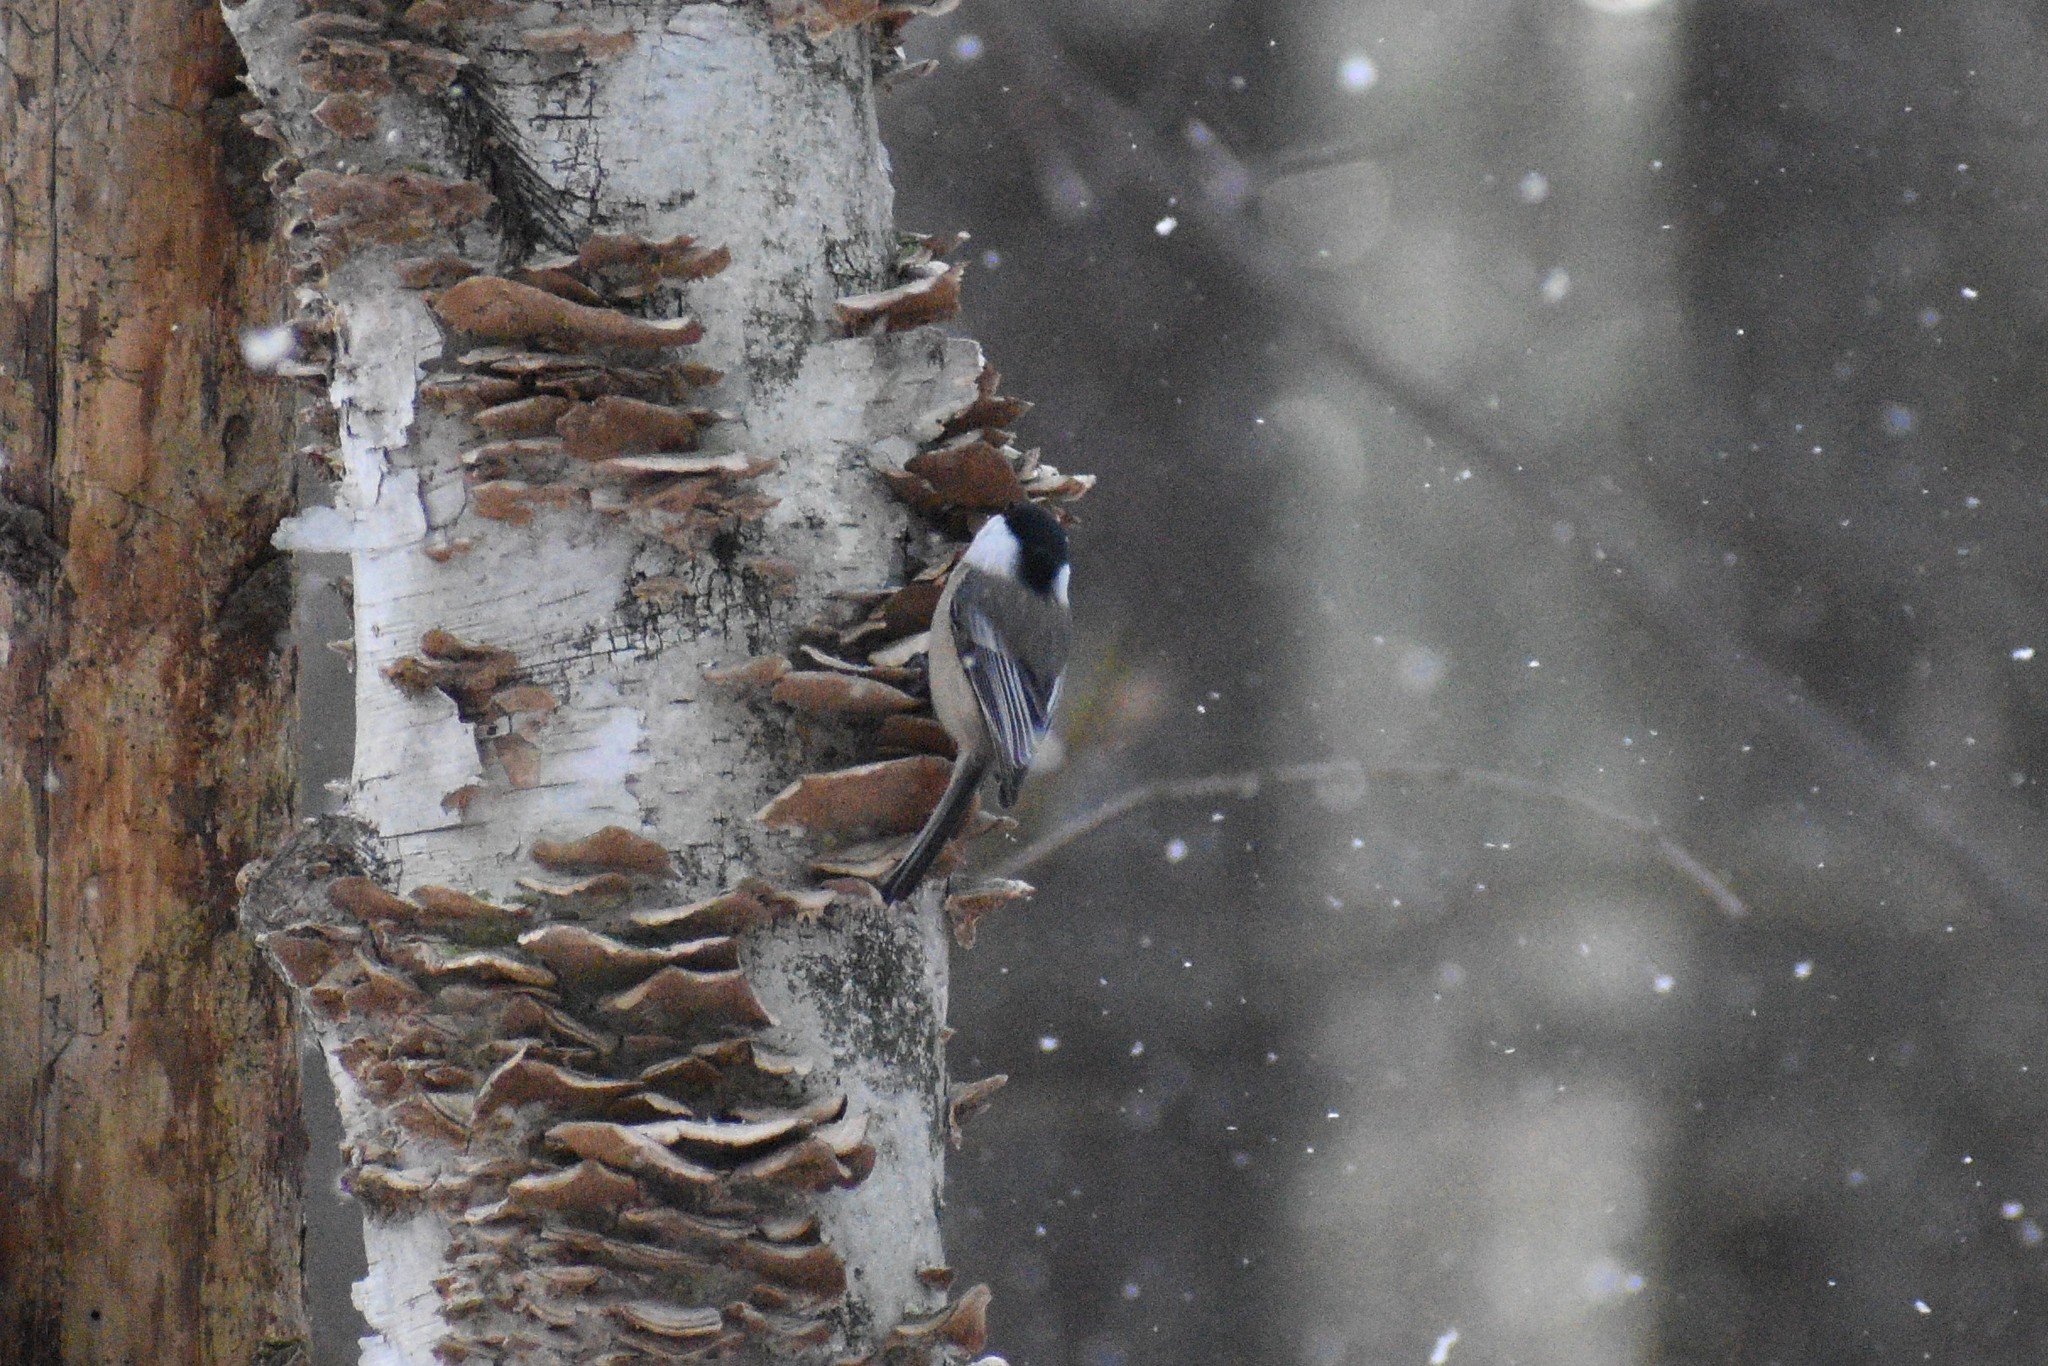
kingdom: Animalia
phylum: Chordata
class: Aves
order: Passeriformes
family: Paridae
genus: Poecile
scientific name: Poecile atricapillus
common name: Black-capped chickadee
